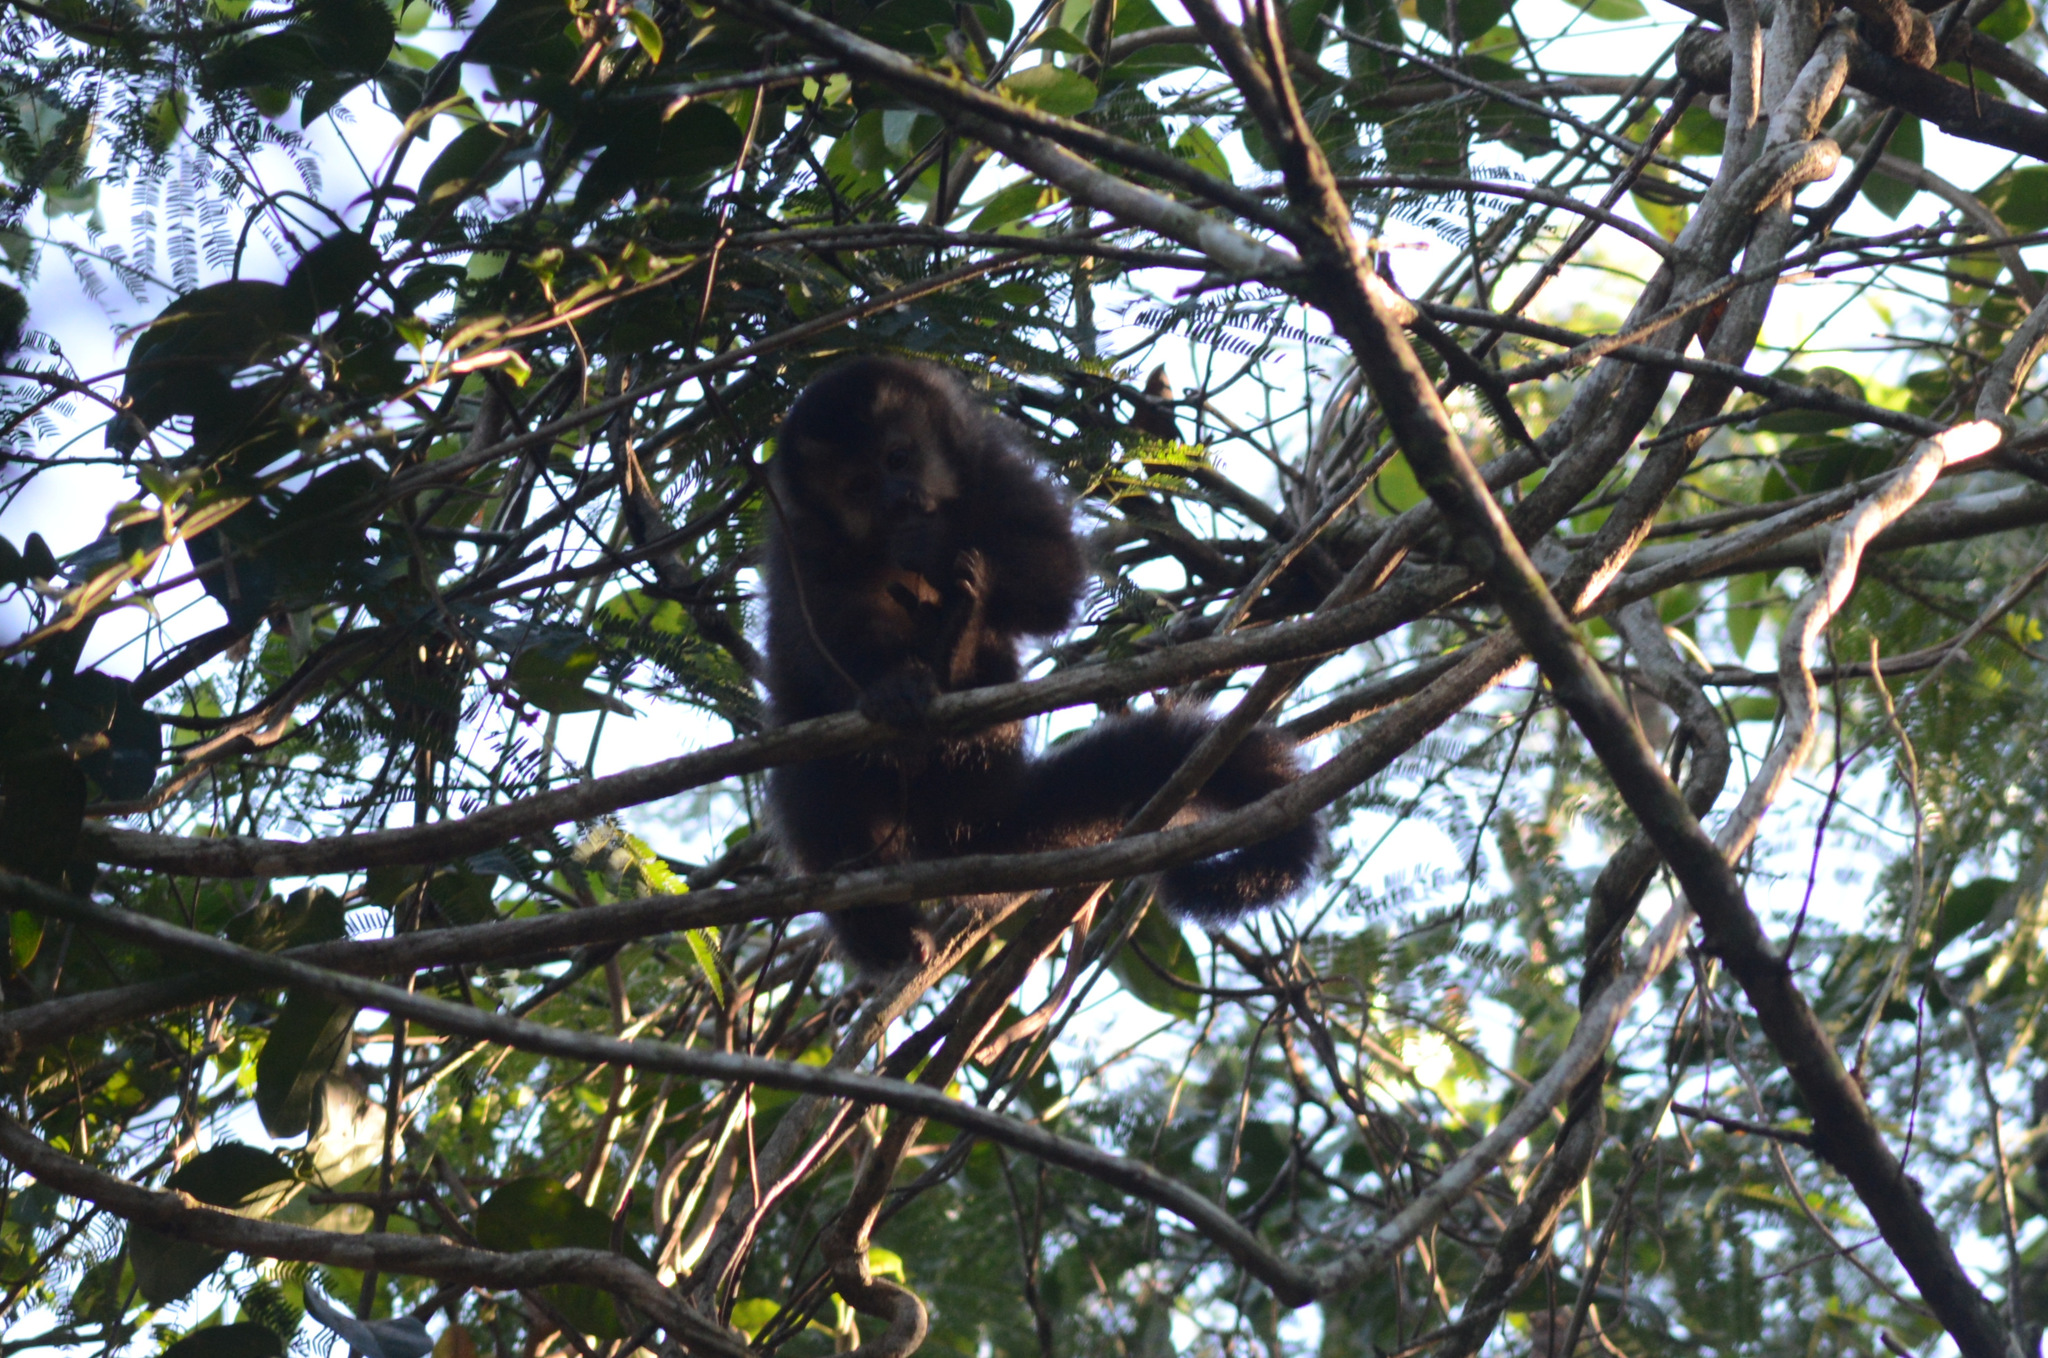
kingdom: Animalia
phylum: Chordata
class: Mammalia
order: Primates
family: Cebidae
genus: Sapajus
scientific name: Sapajus nigritus
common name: Black capuchin
